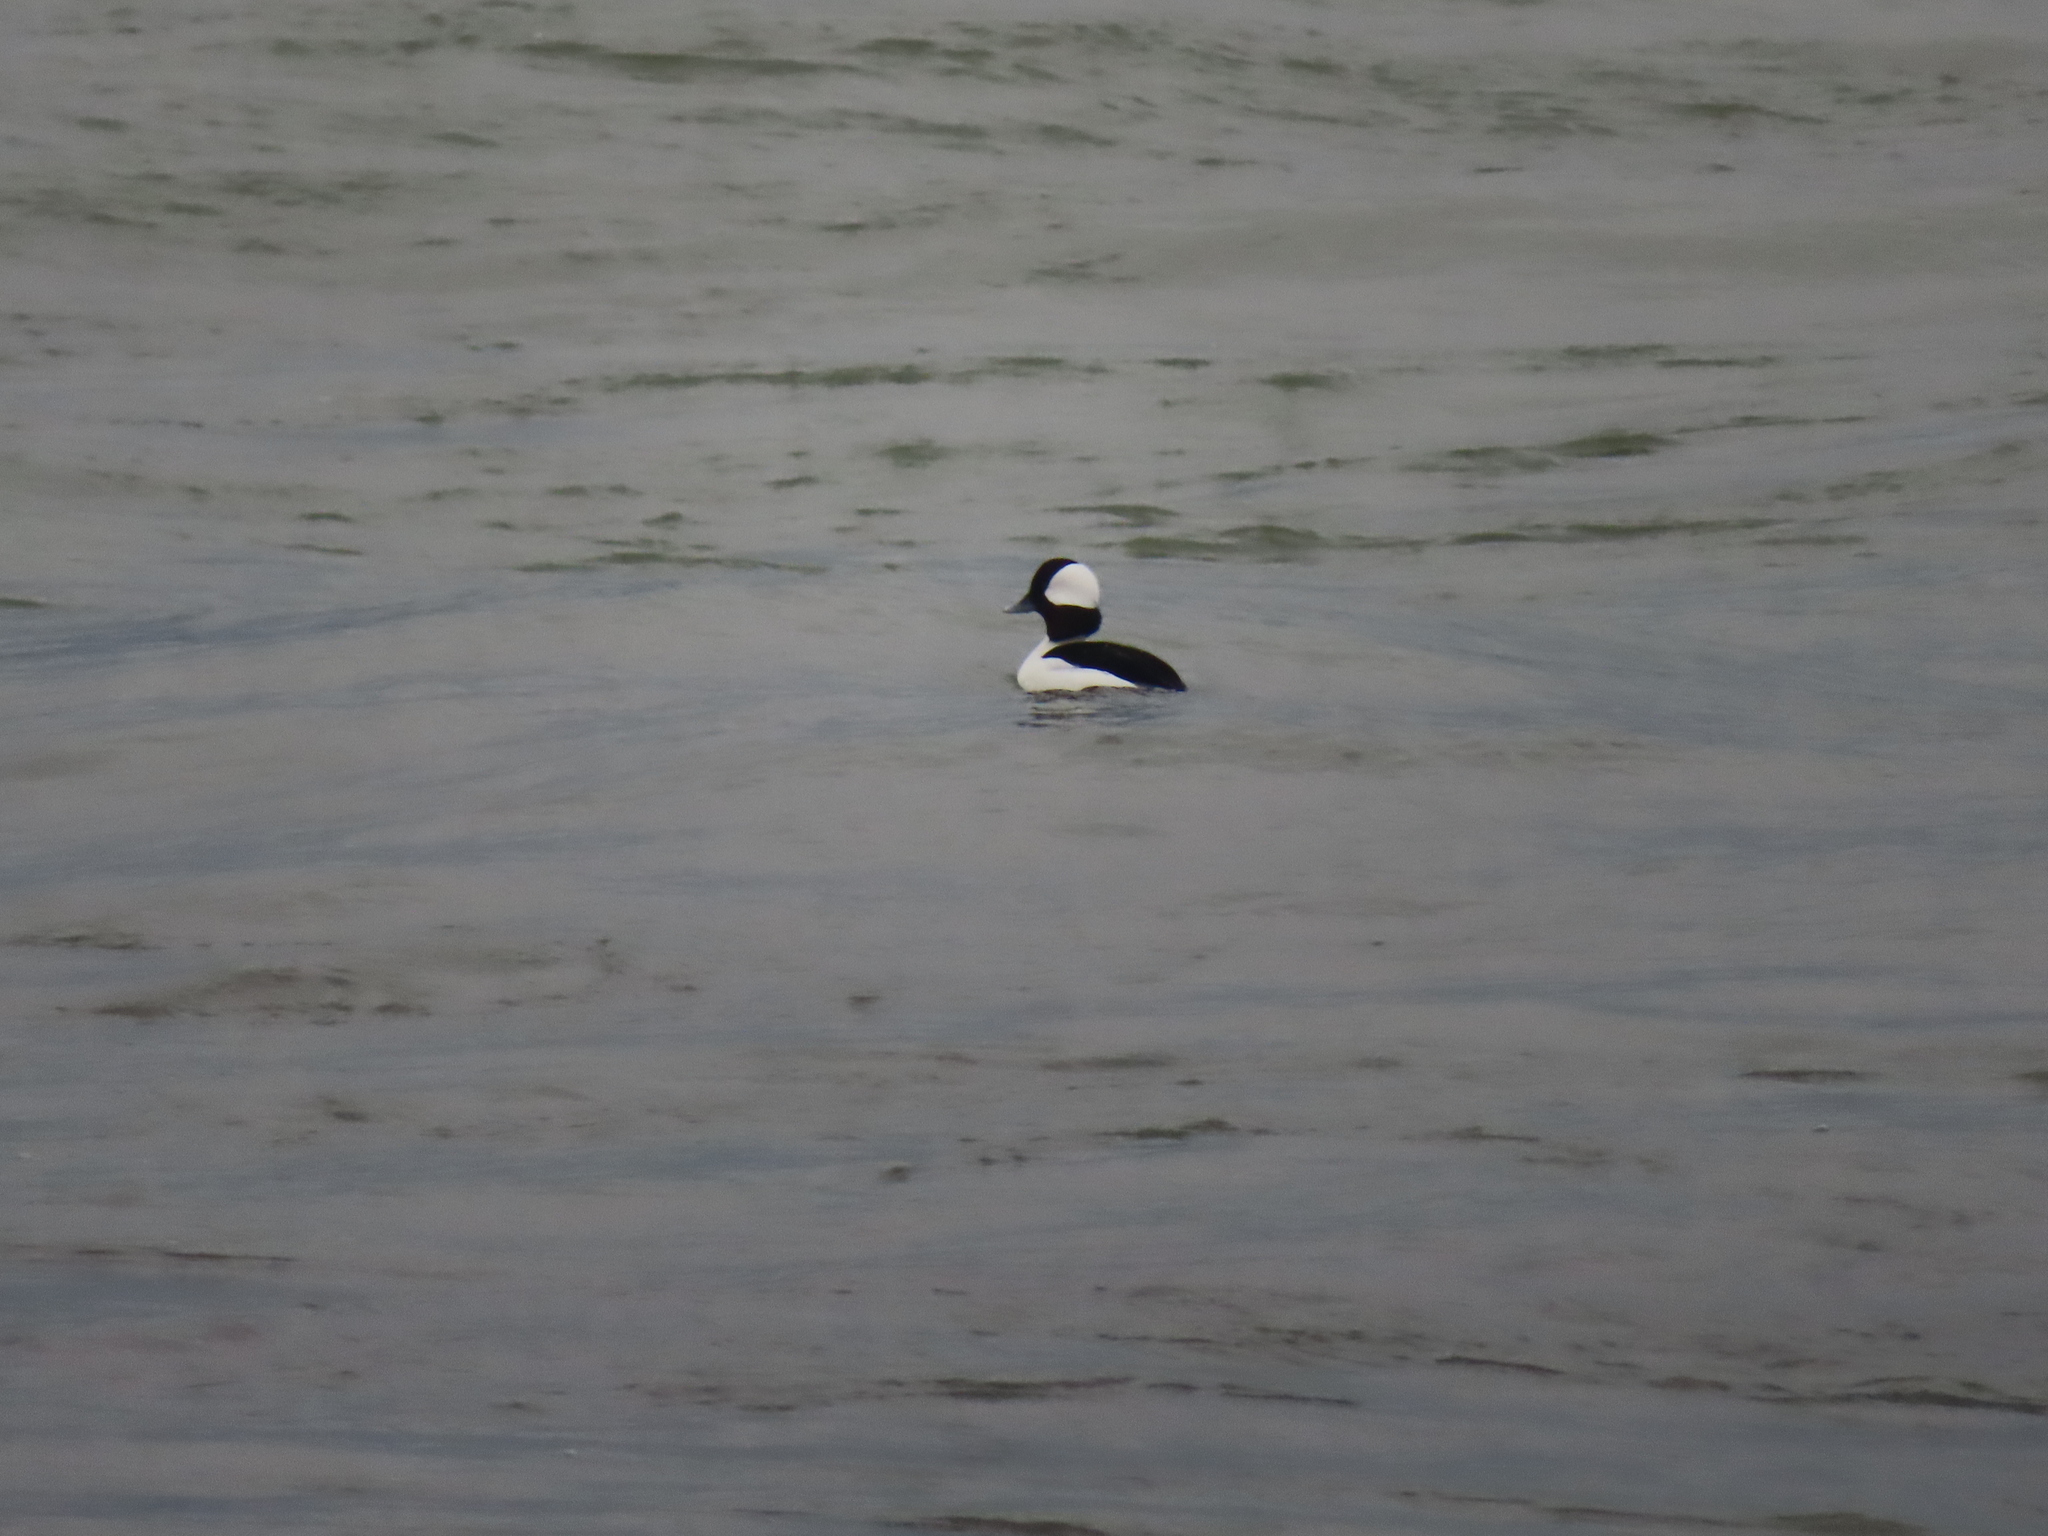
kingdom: Animalia
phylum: Chordata
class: Aves
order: Anseriformes
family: Anatidae
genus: Bucephala
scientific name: Bucephala albeola
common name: Bufflehead
